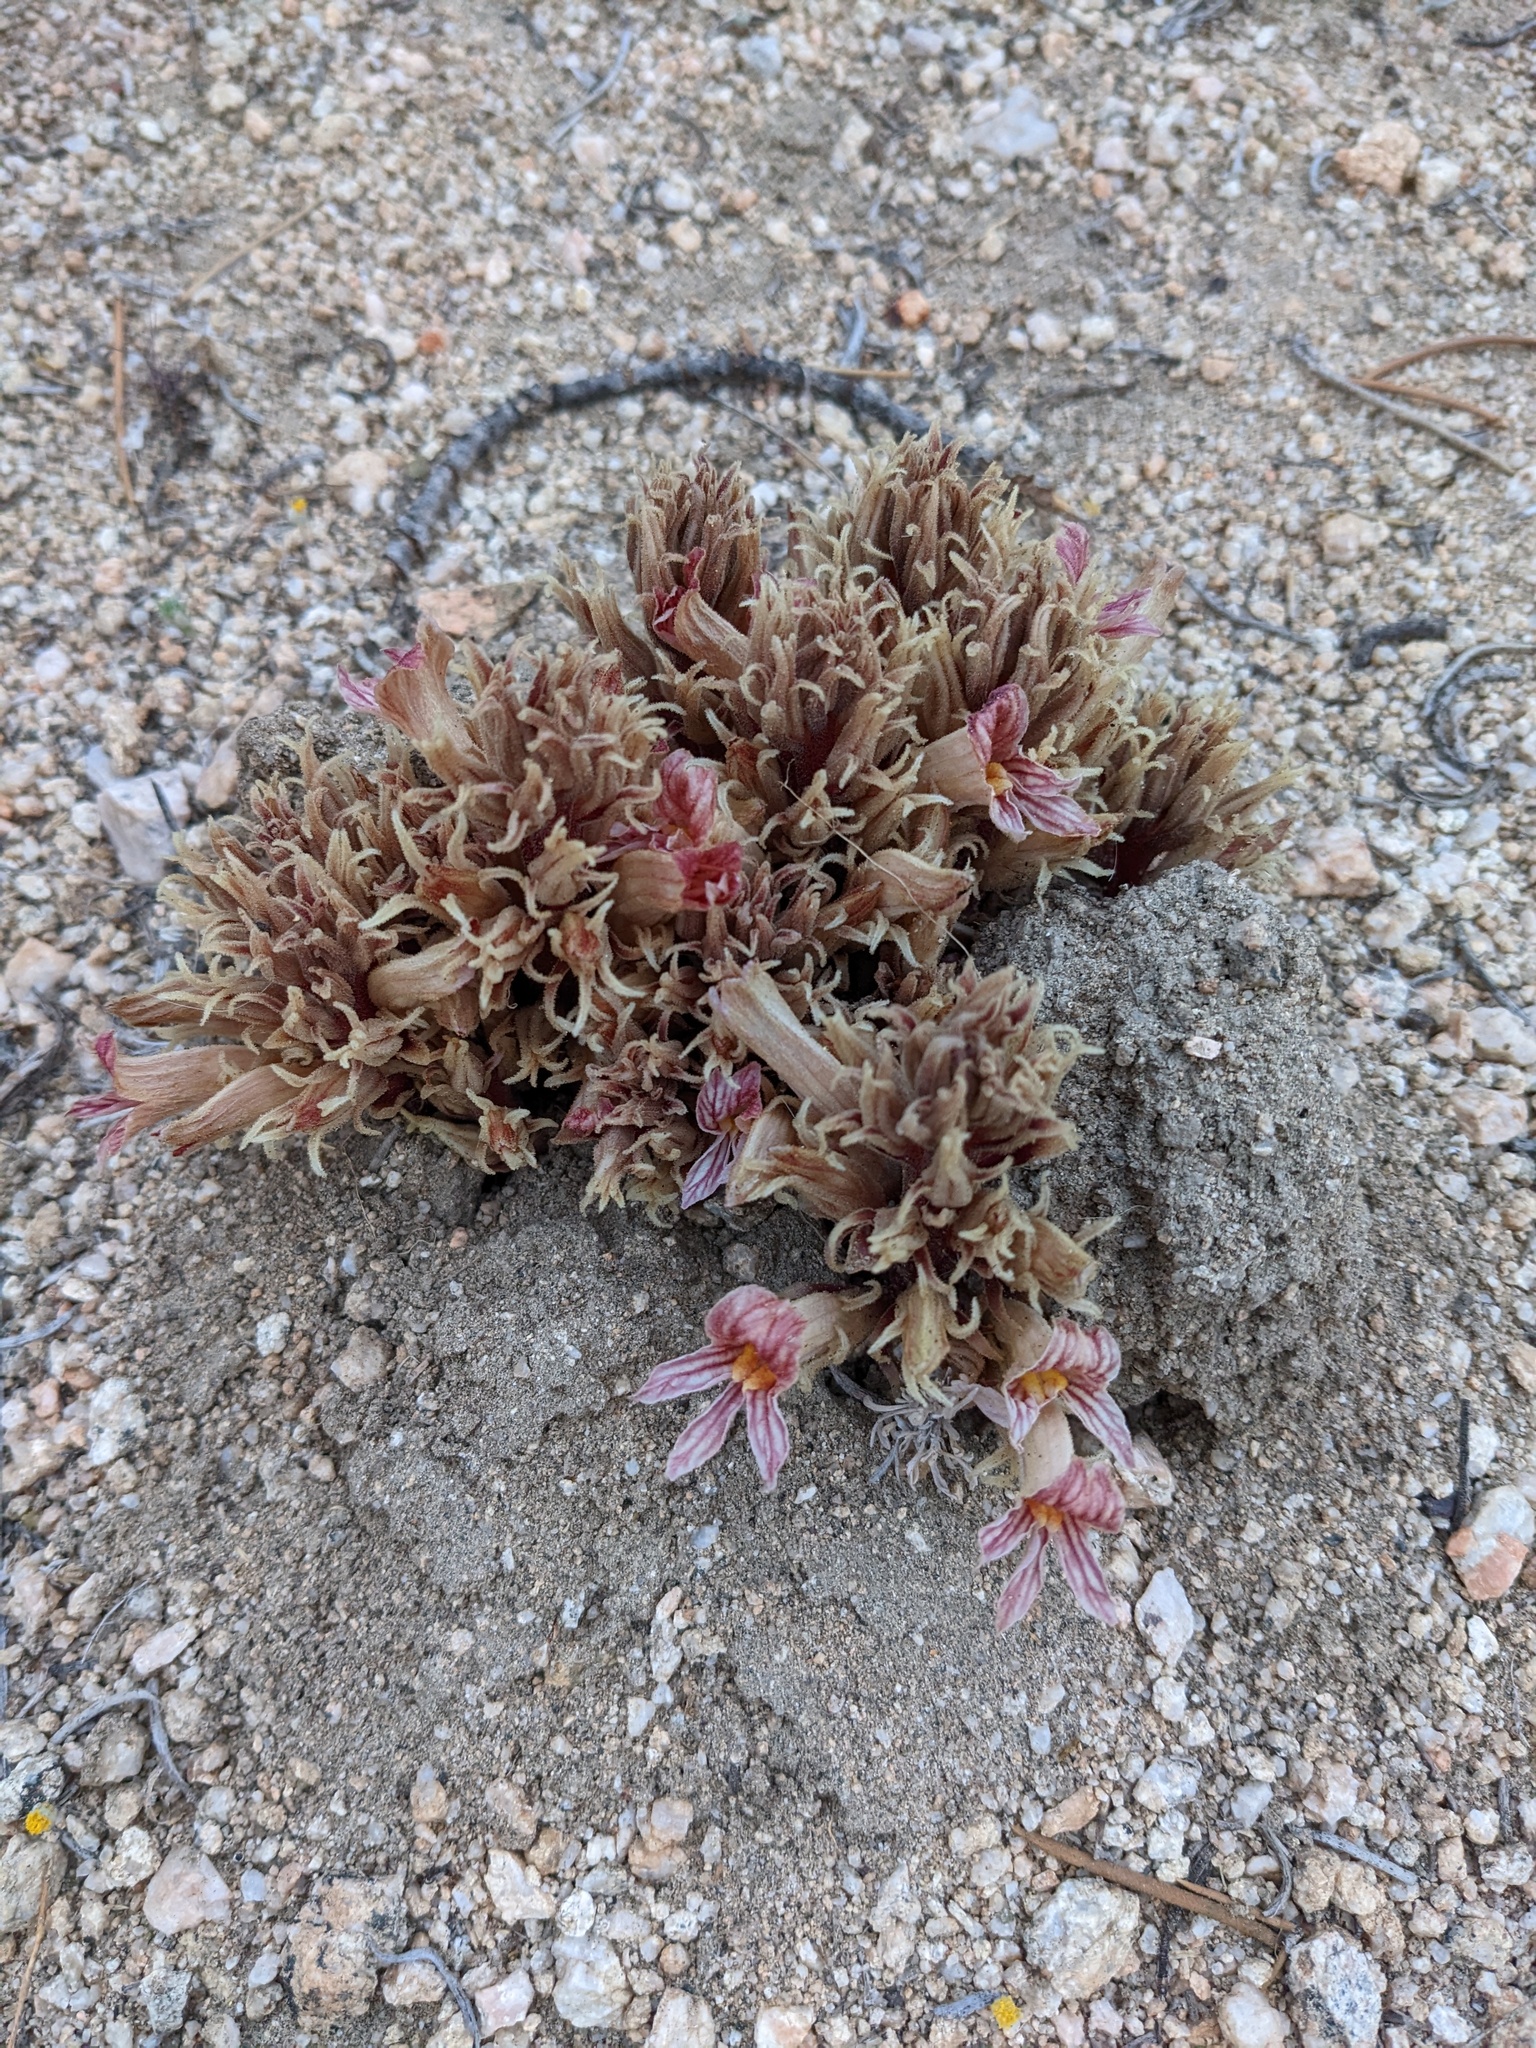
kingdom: Plantae
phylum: Tracheophyta
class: Magnoliopsida
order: Lamiales
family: Orobanchaceae
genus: Aphyllon
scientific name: Aphyllon californicum
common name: California broomrape
